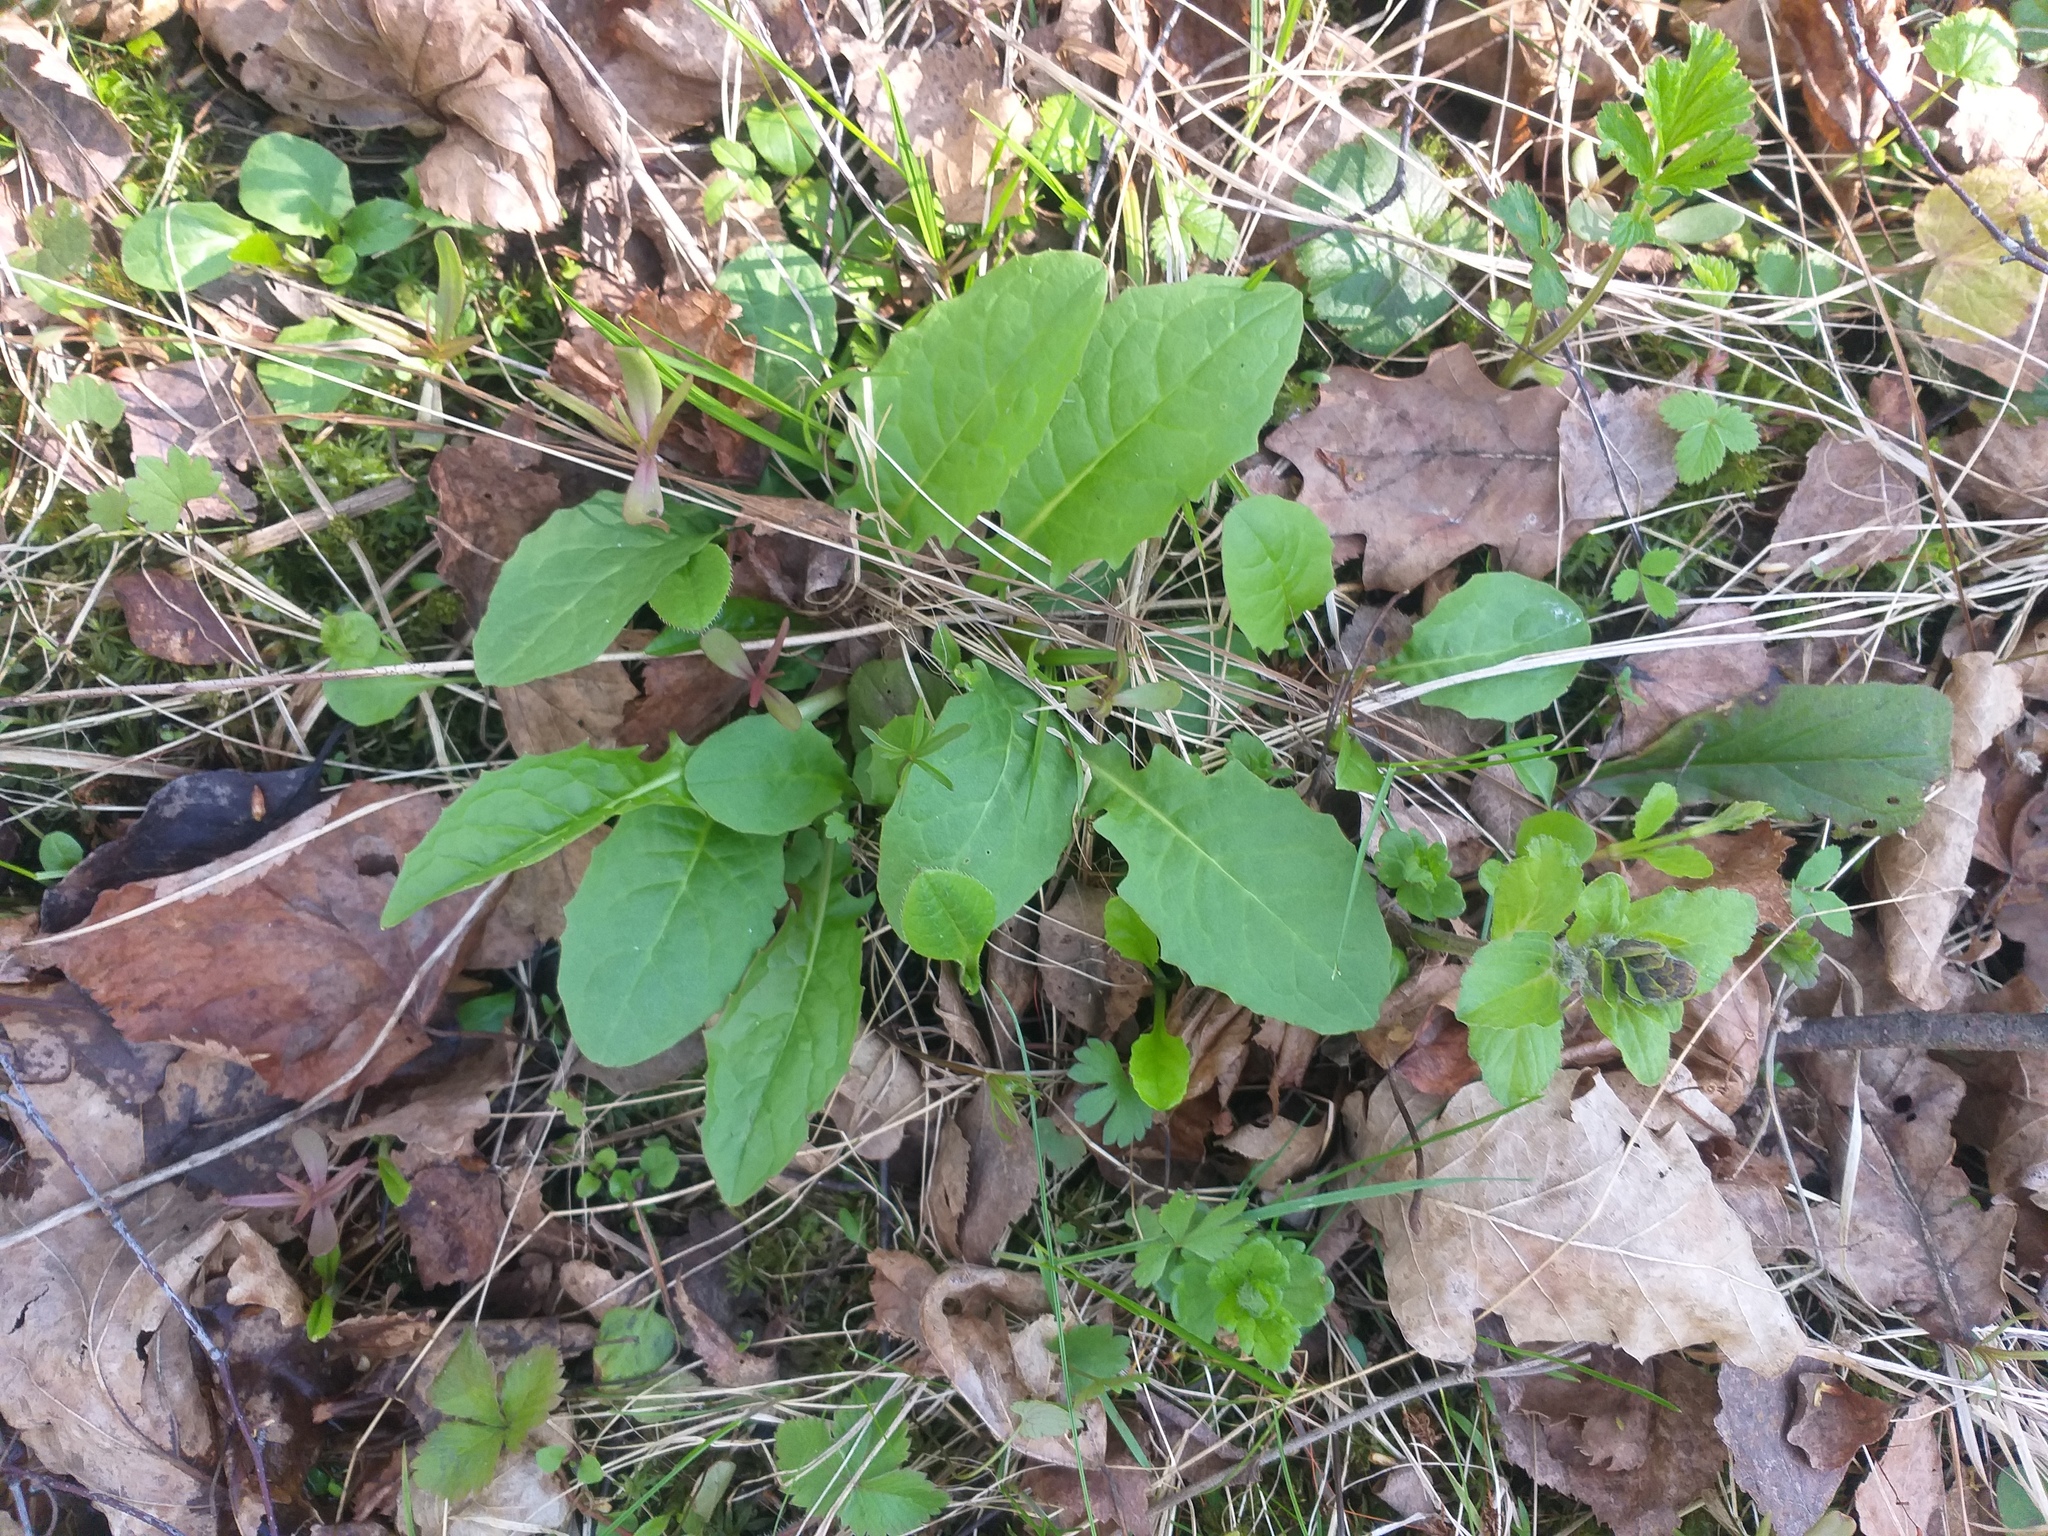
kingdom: Plantae
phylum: Tracheophyta
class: Magnoliopsida
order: Asterales
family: Asteraceae
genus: Crepis
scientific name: Crepis paludosa
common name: Marsh hawk's-beard
